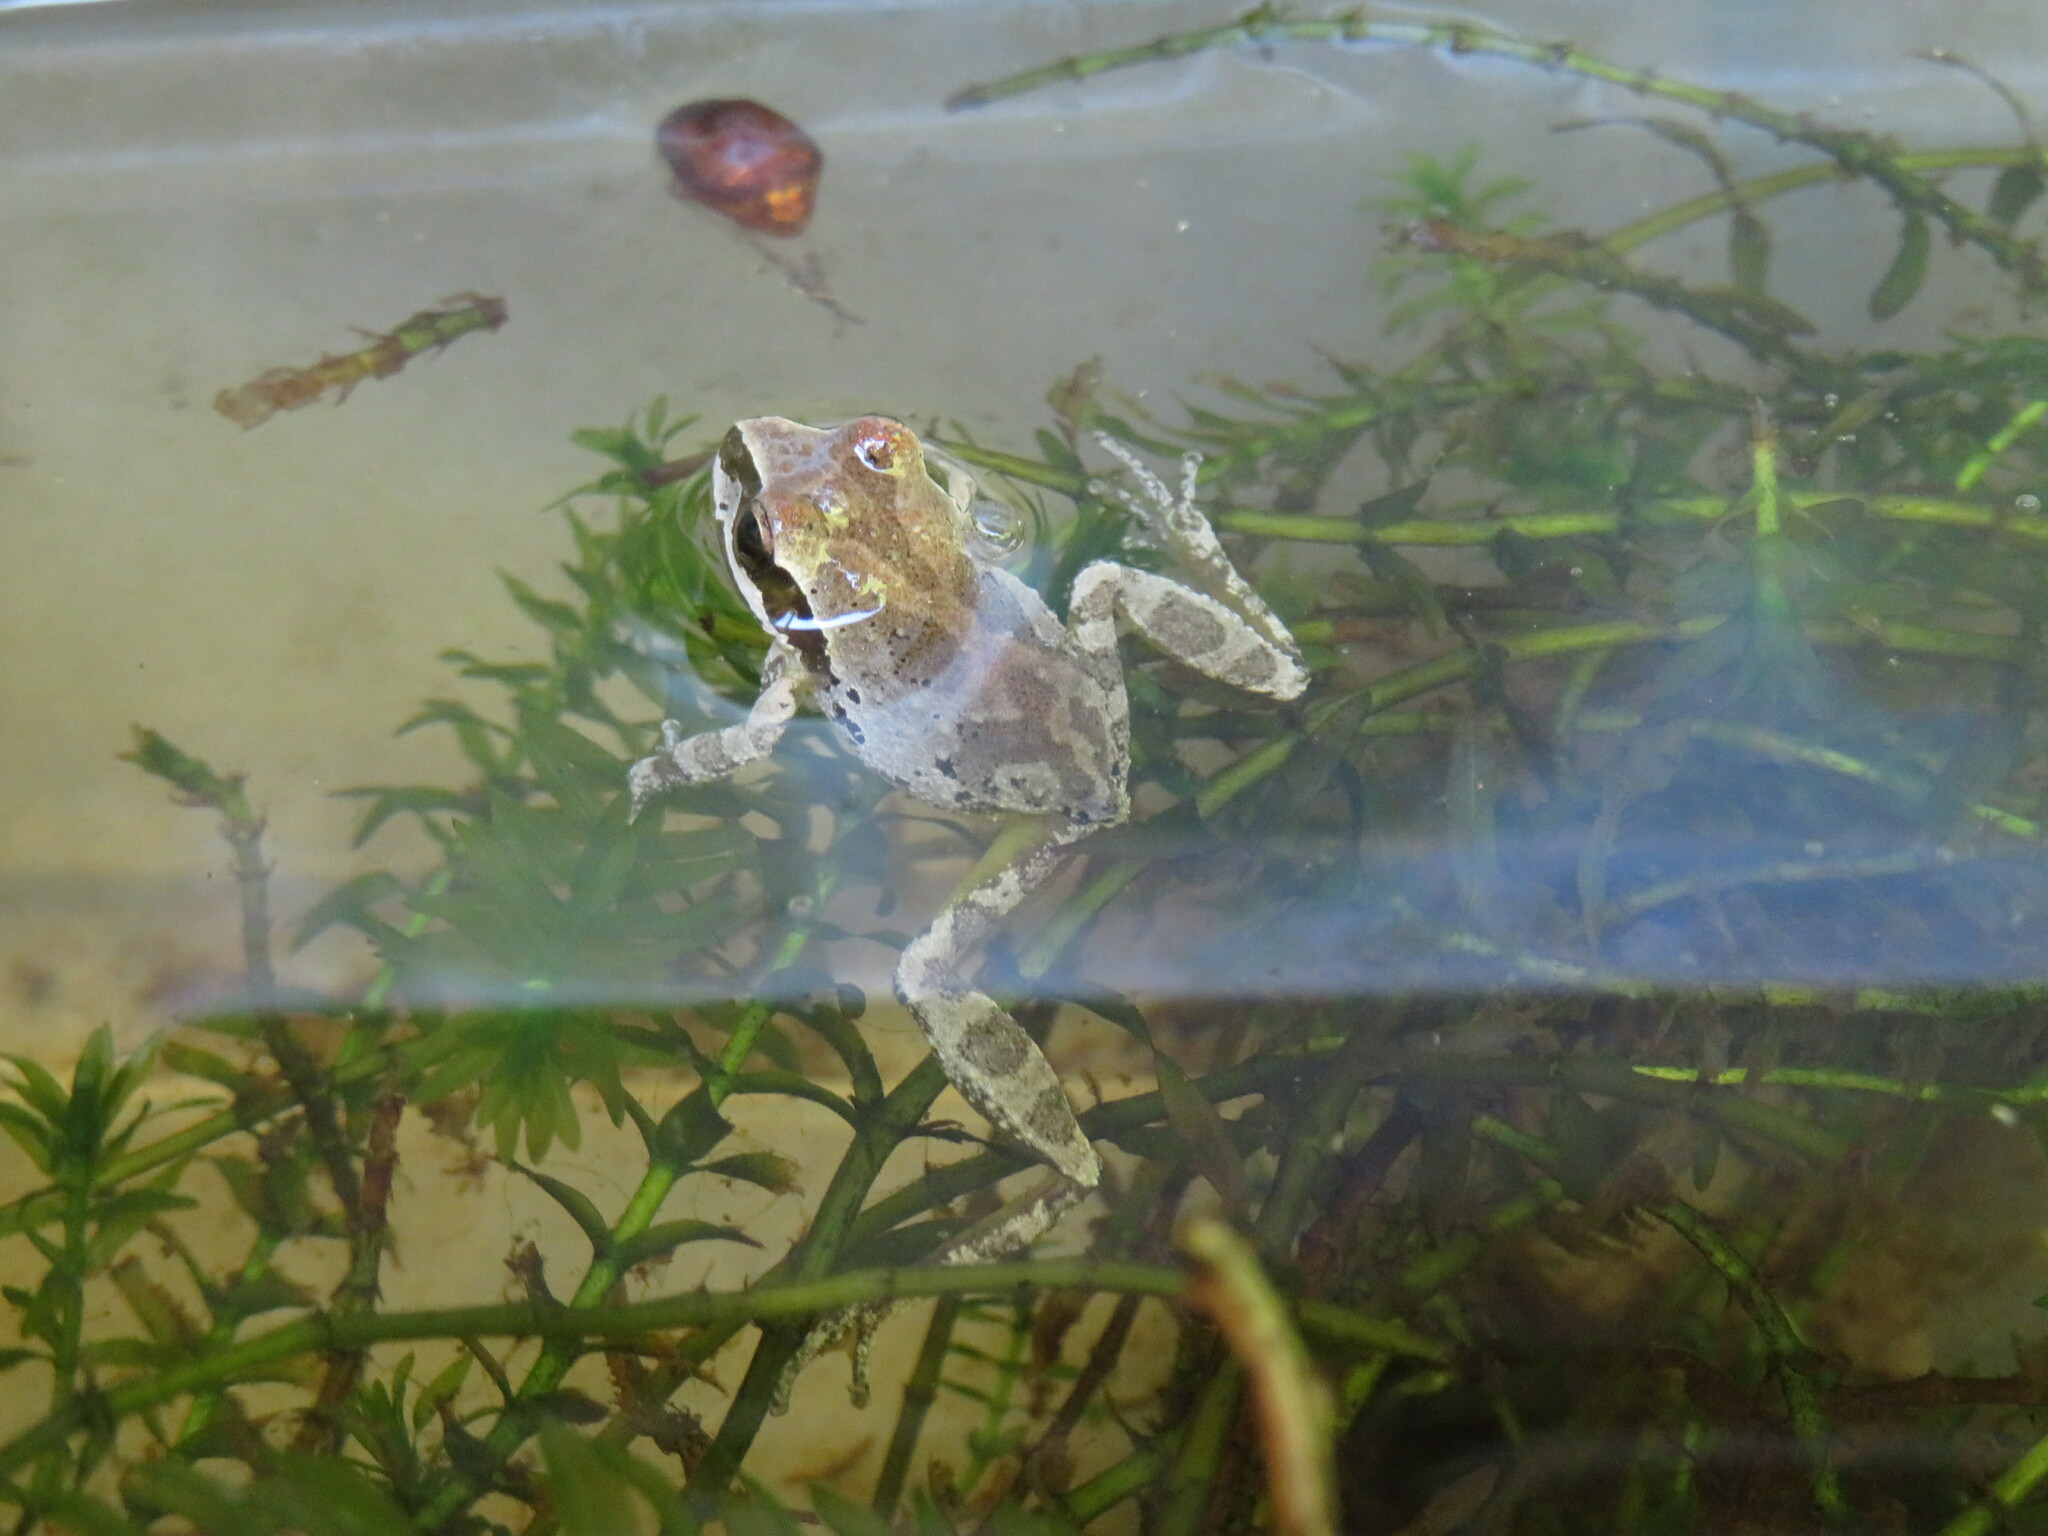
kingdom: Animalia
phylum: Chordata
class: Amphibia
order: Anura
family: Hylidae
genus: Pseudacris
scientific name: Pseudacris regilla
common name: Pacific chorus frog
